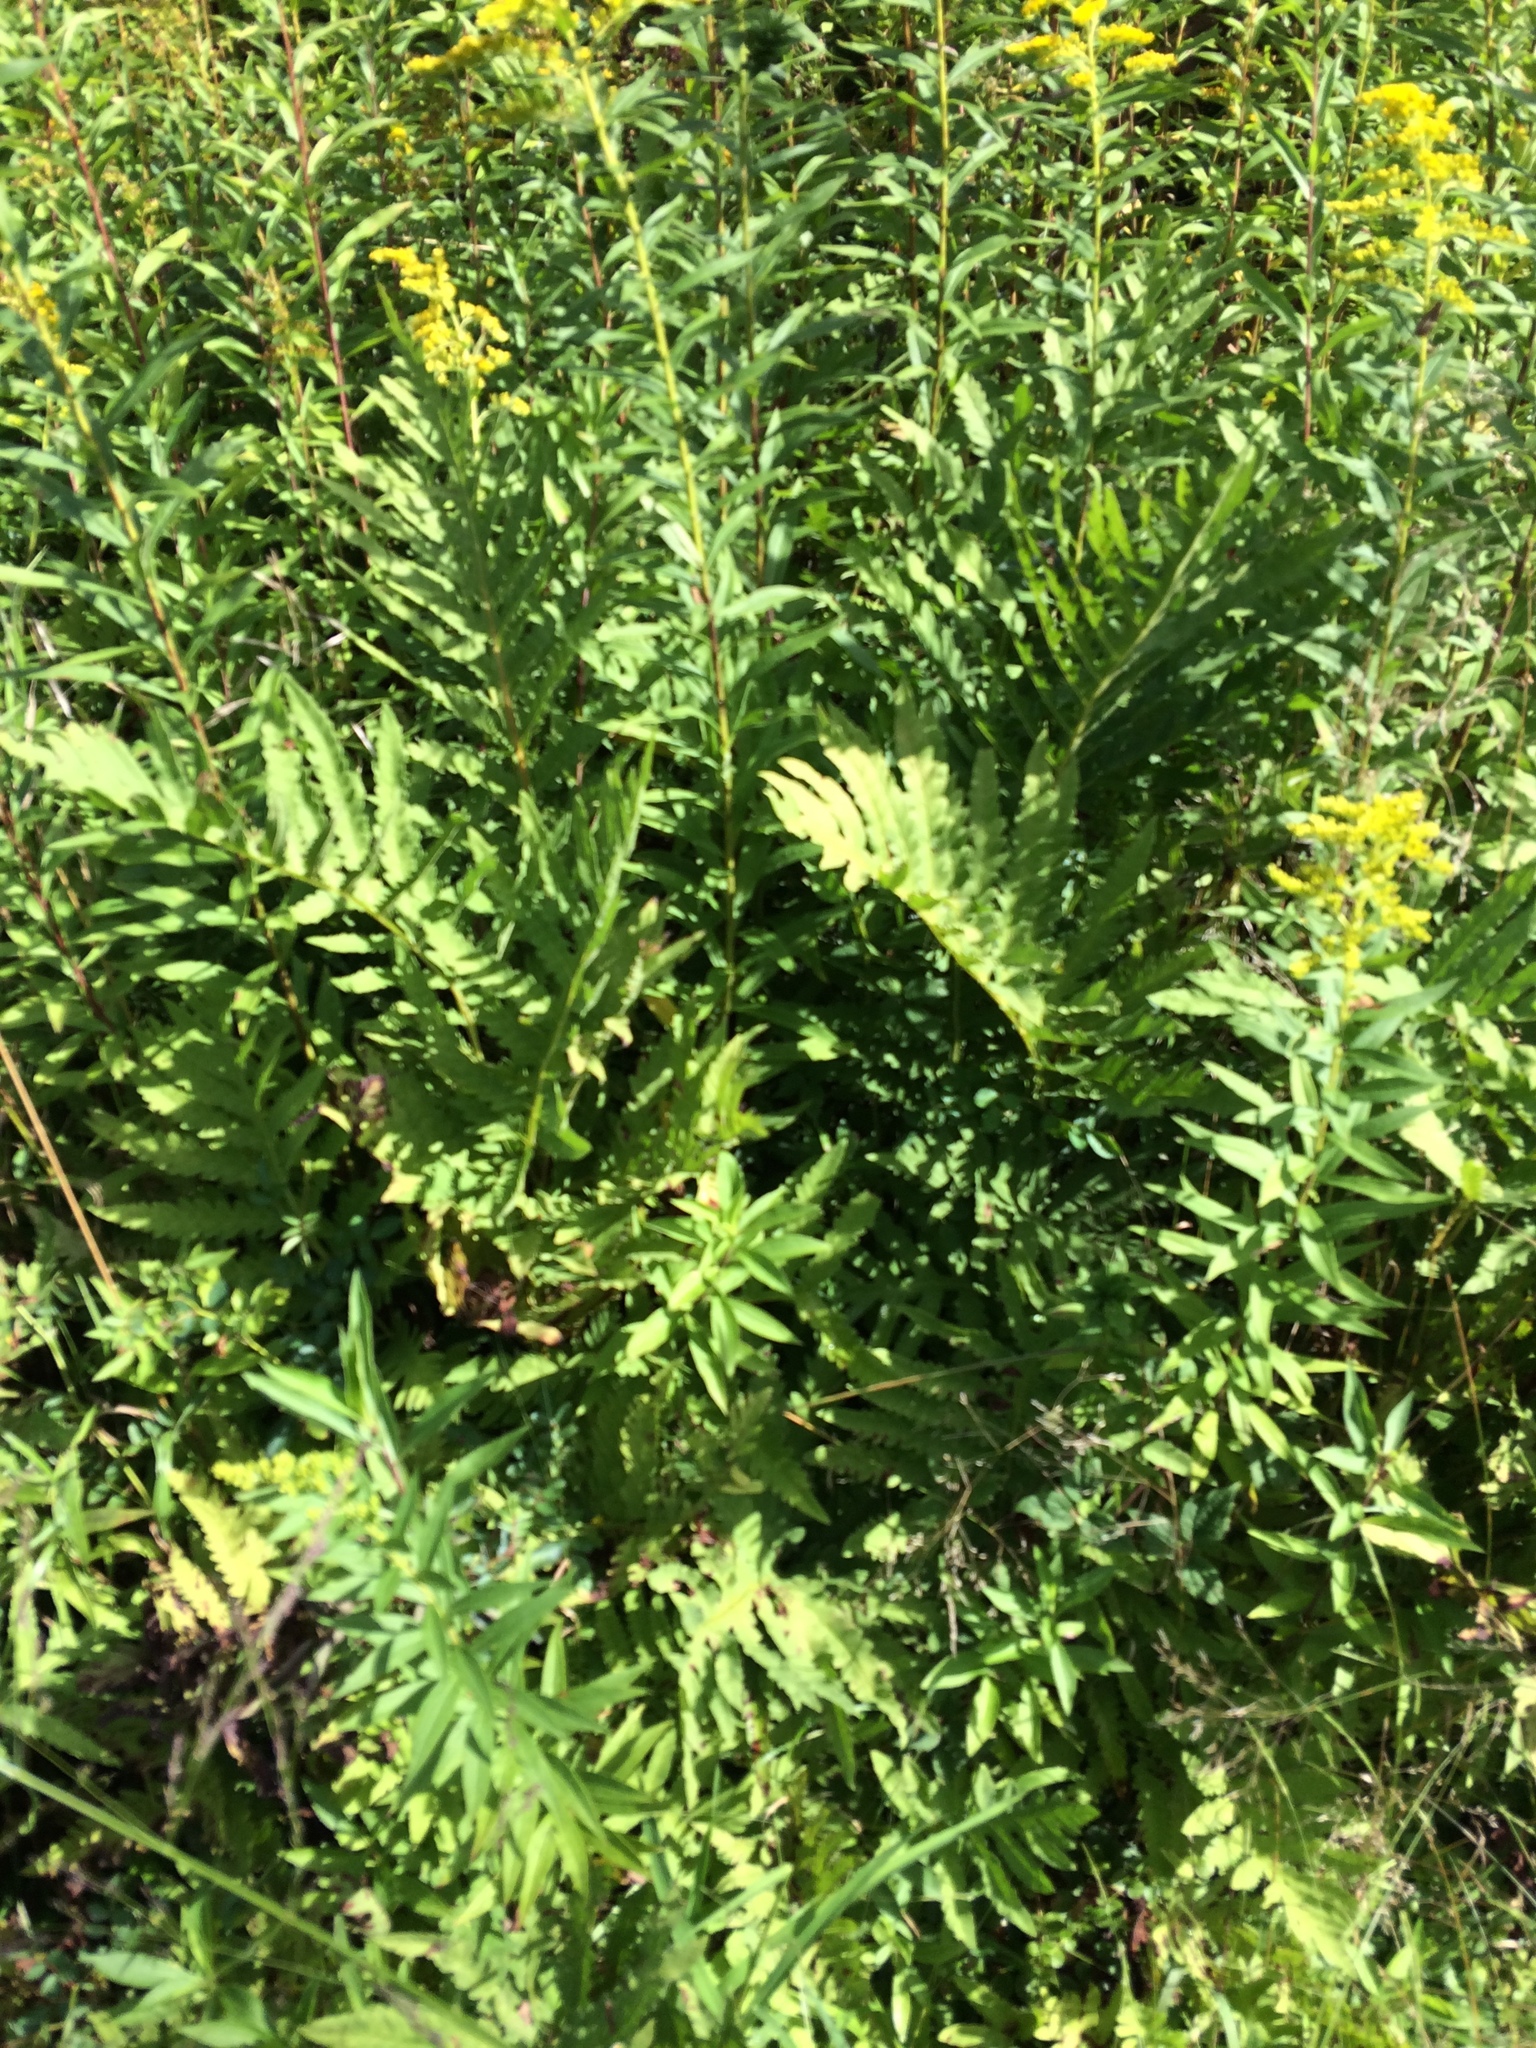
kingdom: Plantae
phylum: Tracheophyta
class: Polypodiopsida
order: Polypodiales
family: Onocleaceae
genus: Onoclea
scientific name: Onoclea sensibilis
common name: Sensitive fern
